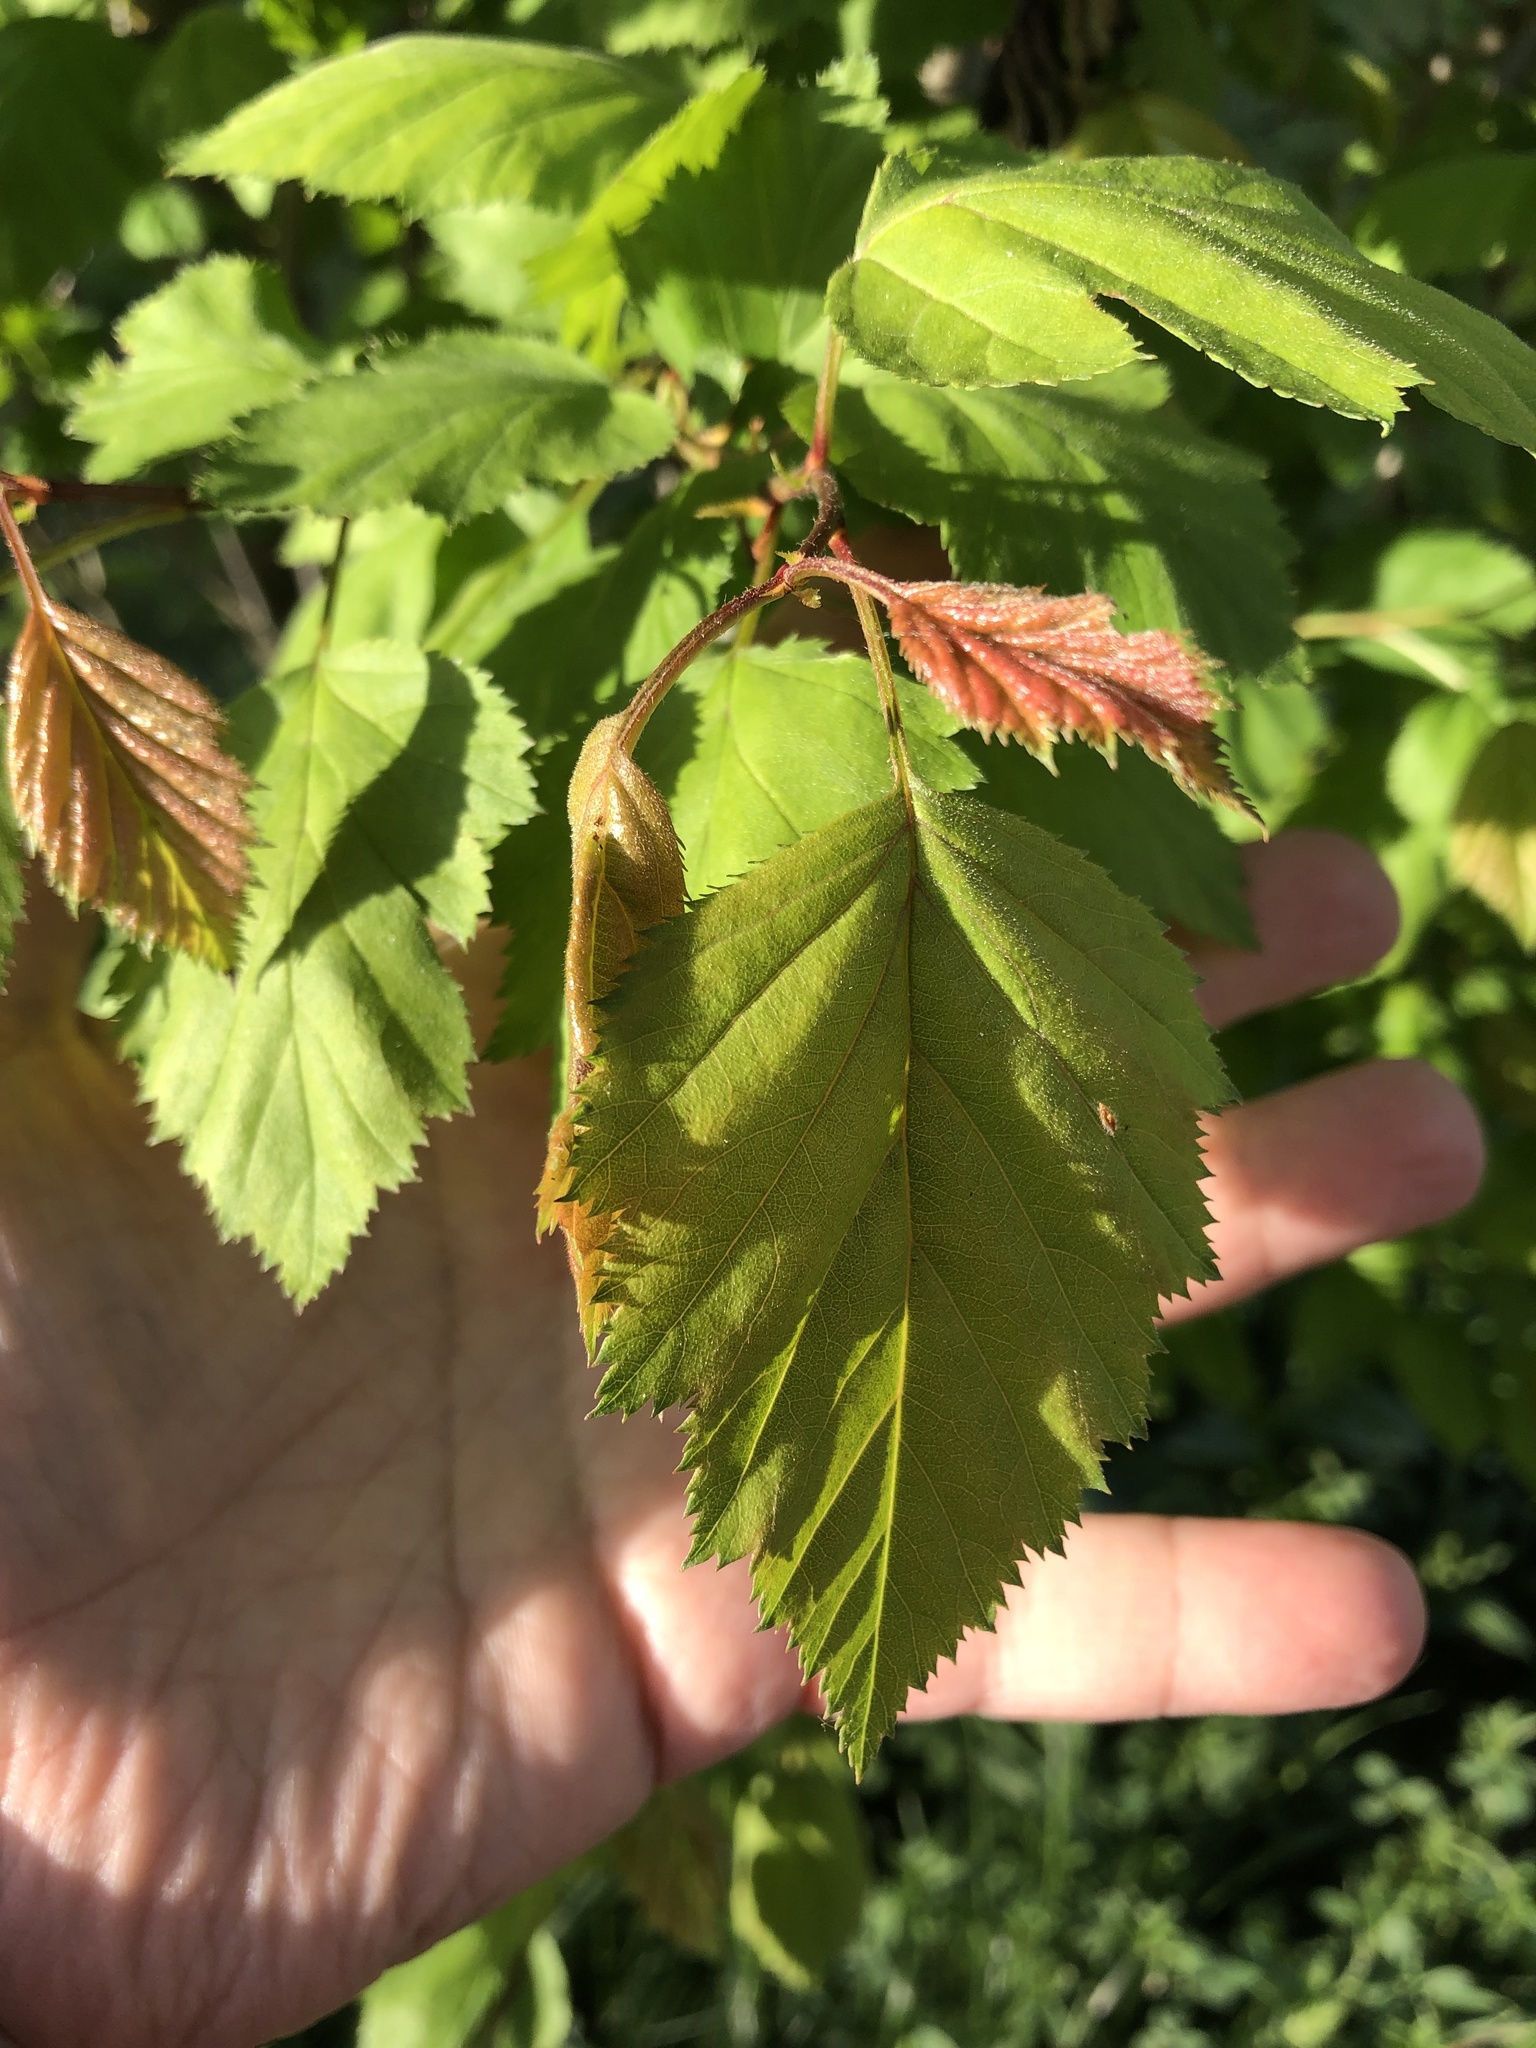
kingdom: Plantae
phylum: Tracheophyta
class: Magnoliopsida
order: Rosales
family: Rosaceae
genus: Crataegus
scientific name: Crataegus
